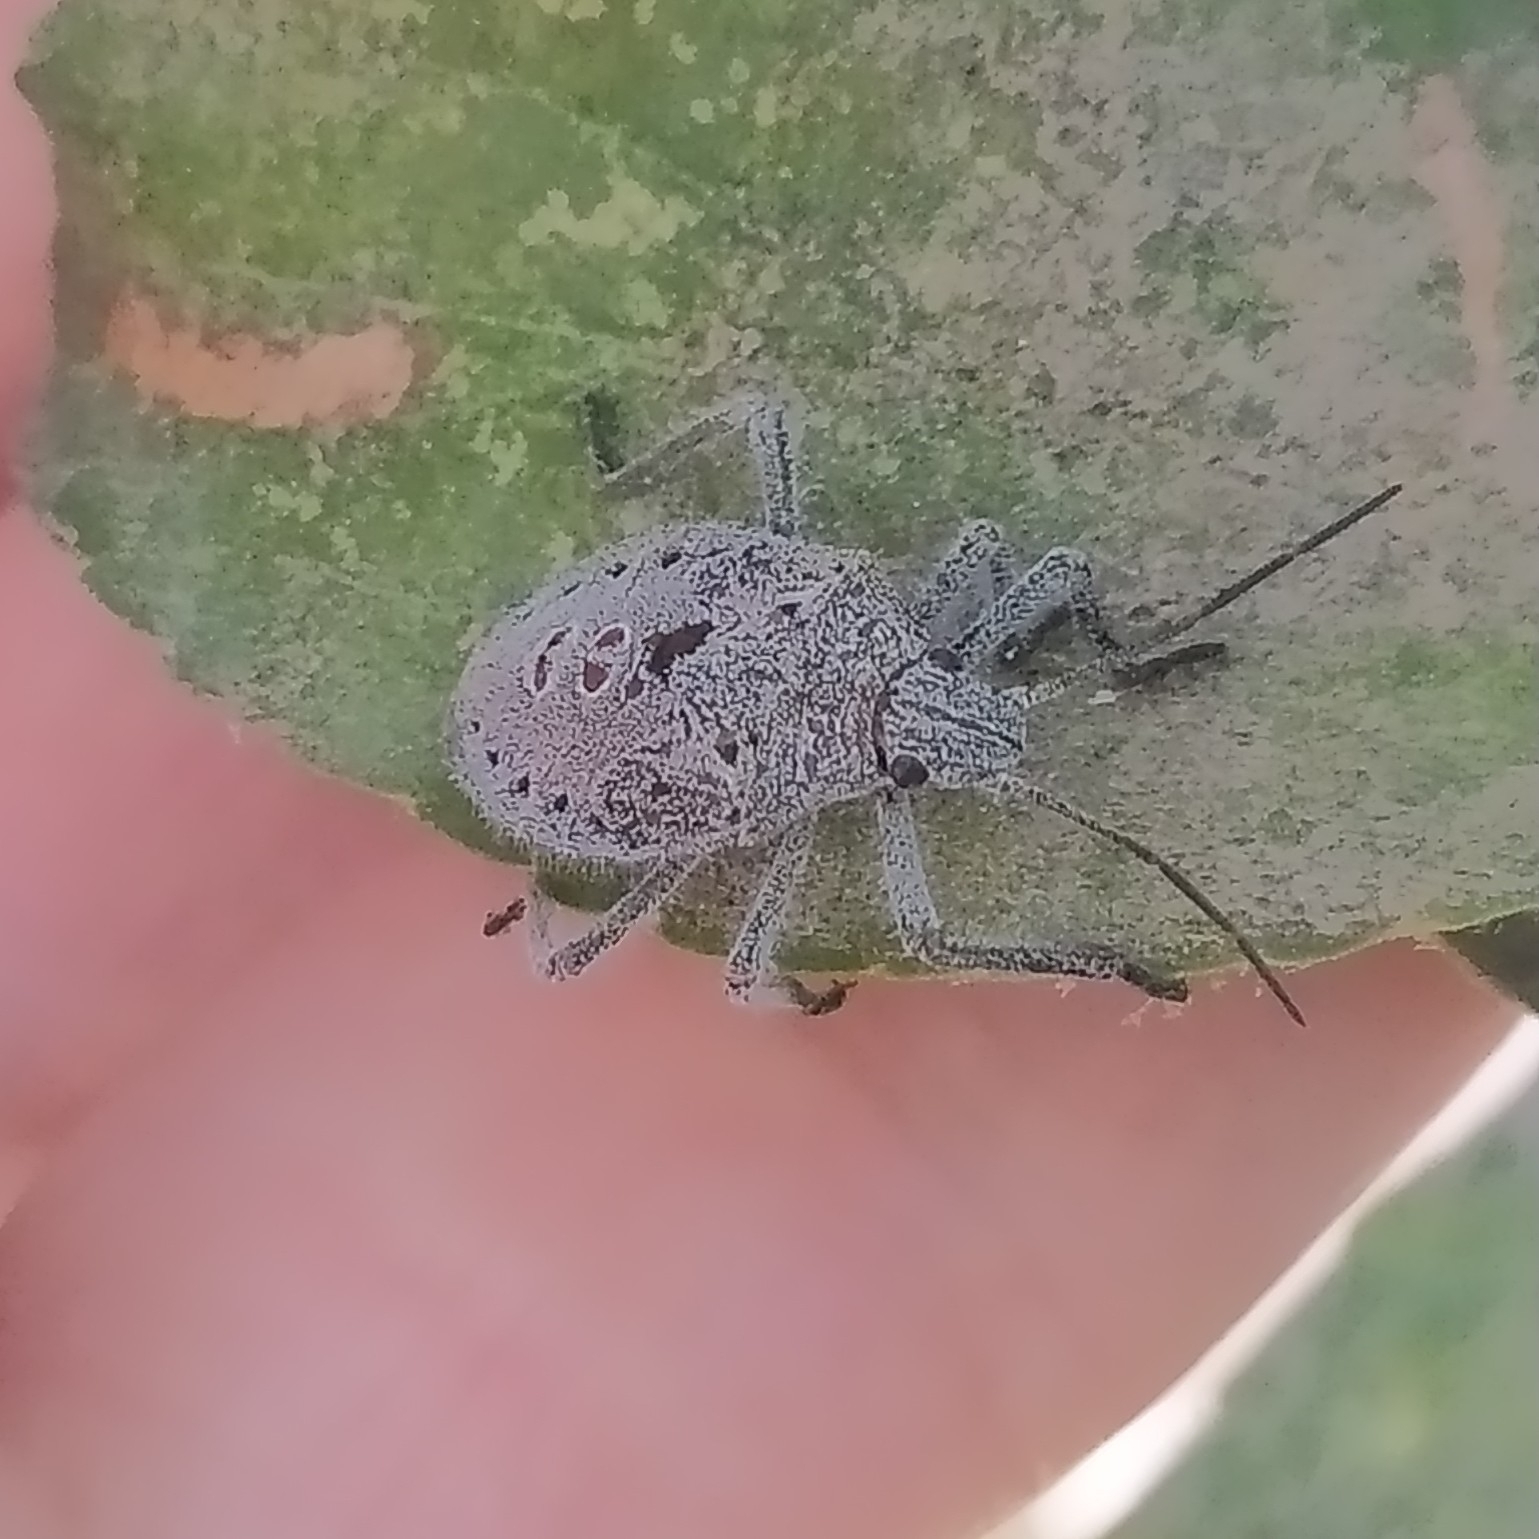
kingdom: Animalia
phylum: Arthropoda
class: Insecta
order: Hemiptera
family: Pentatomidae
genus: Apodiphus
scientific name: Apodiphus
